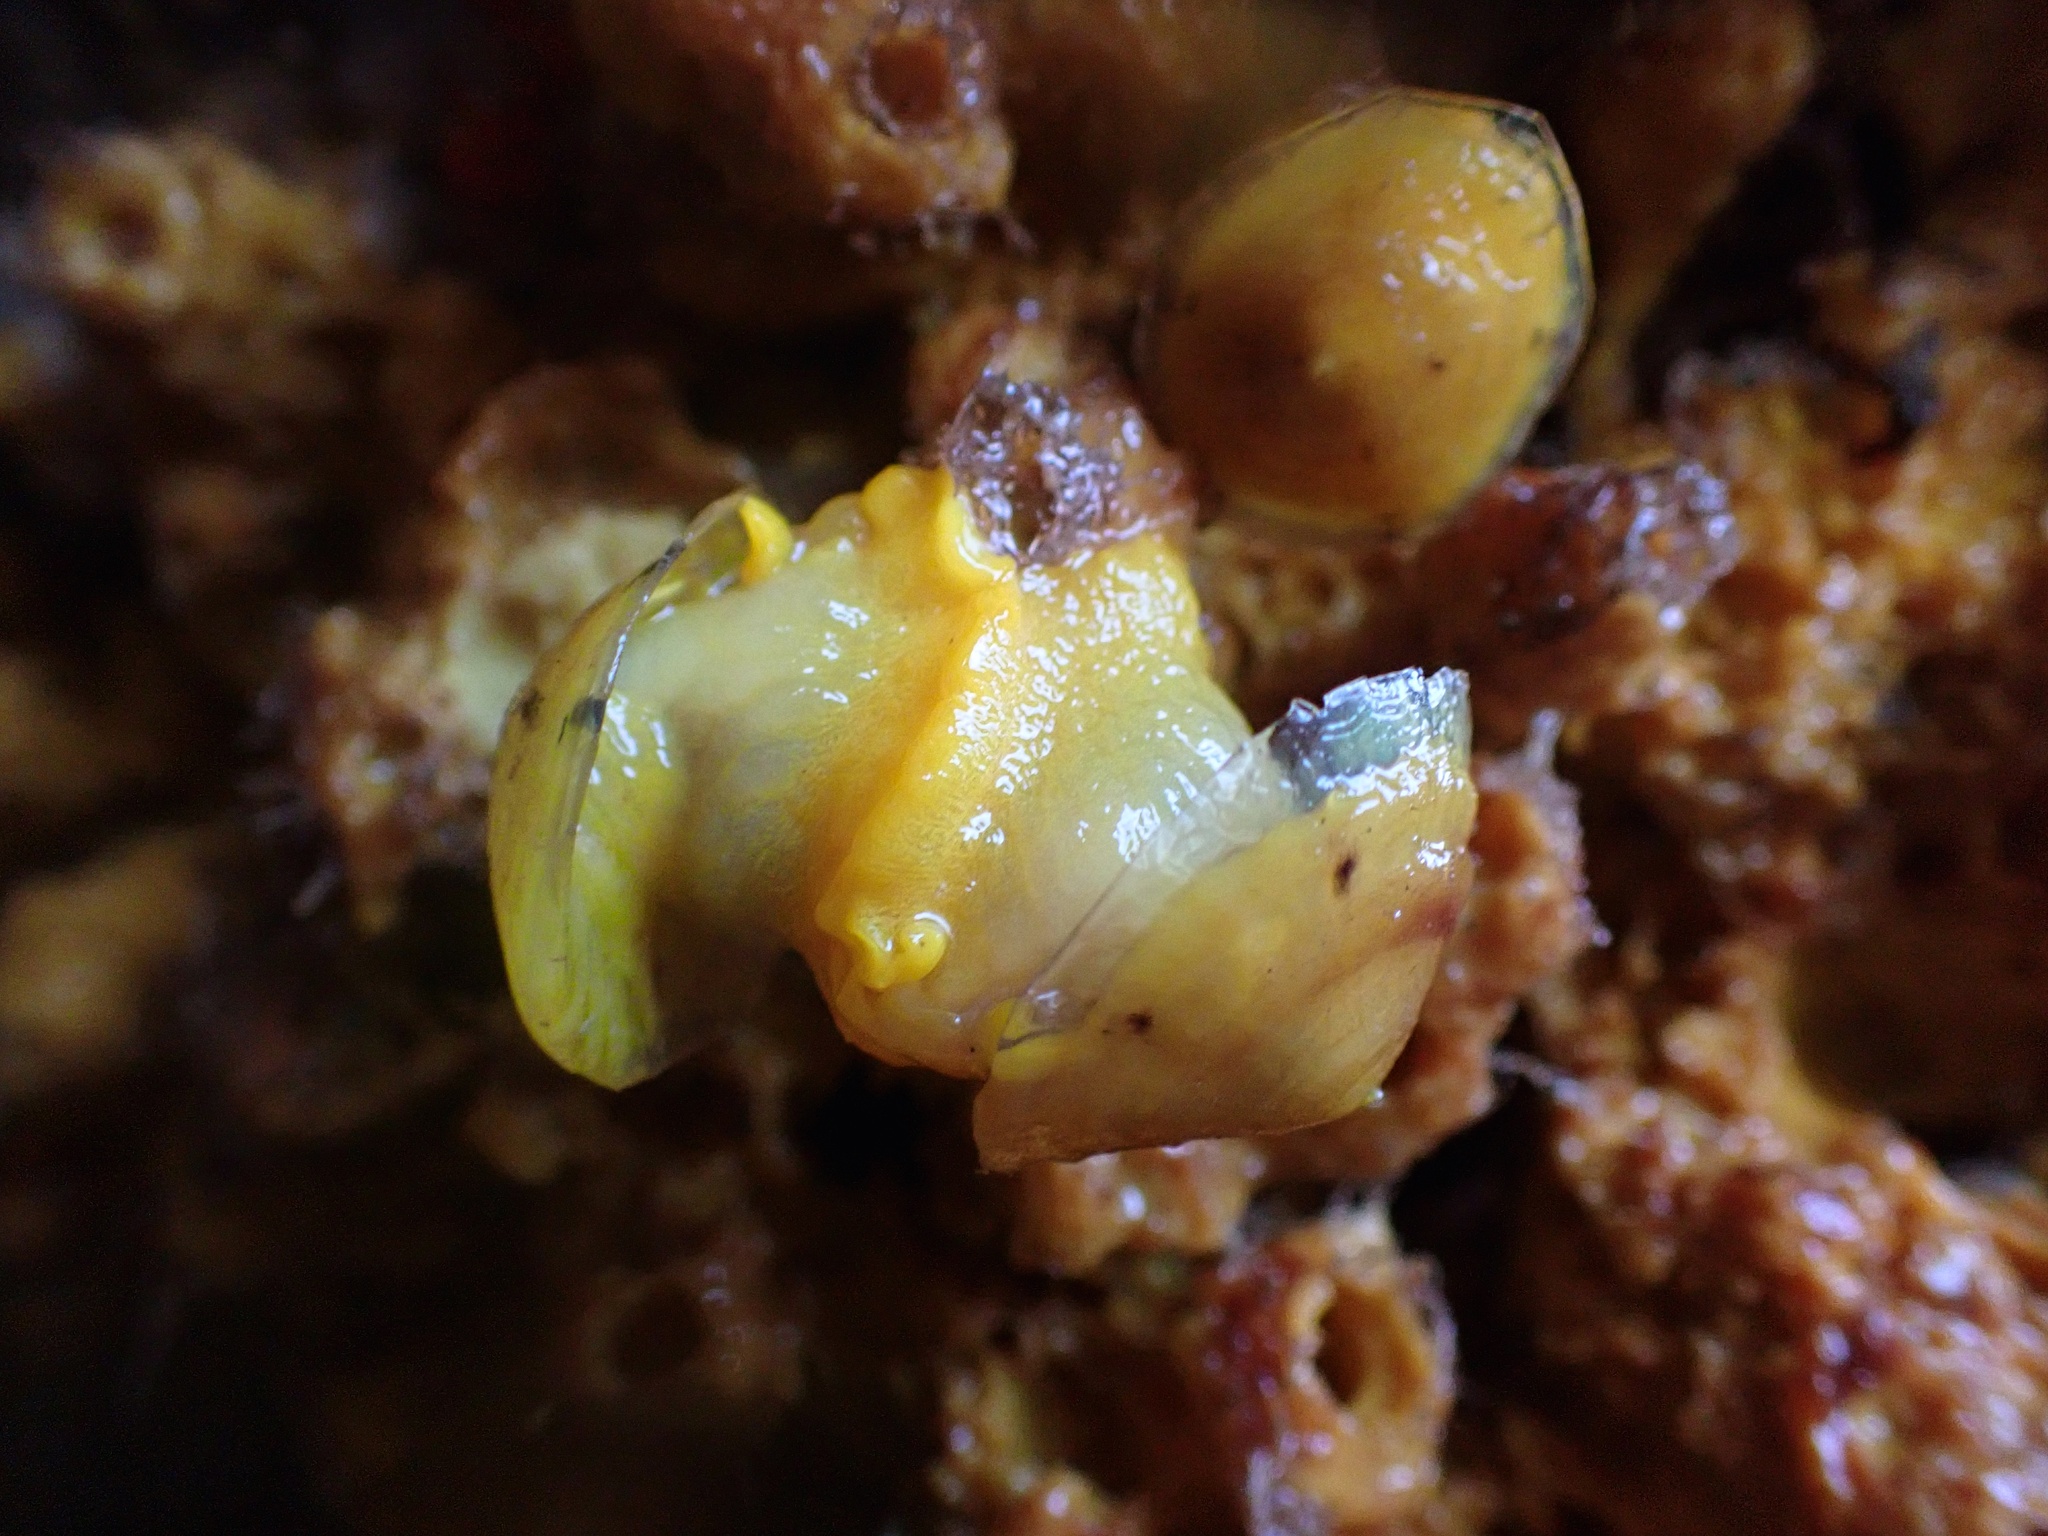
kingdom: Animalia
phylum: Mollusca
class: Gastropoda
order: Umbraculida
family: Tylodinidae
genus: Tylodina
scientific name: Tylodina fungina
